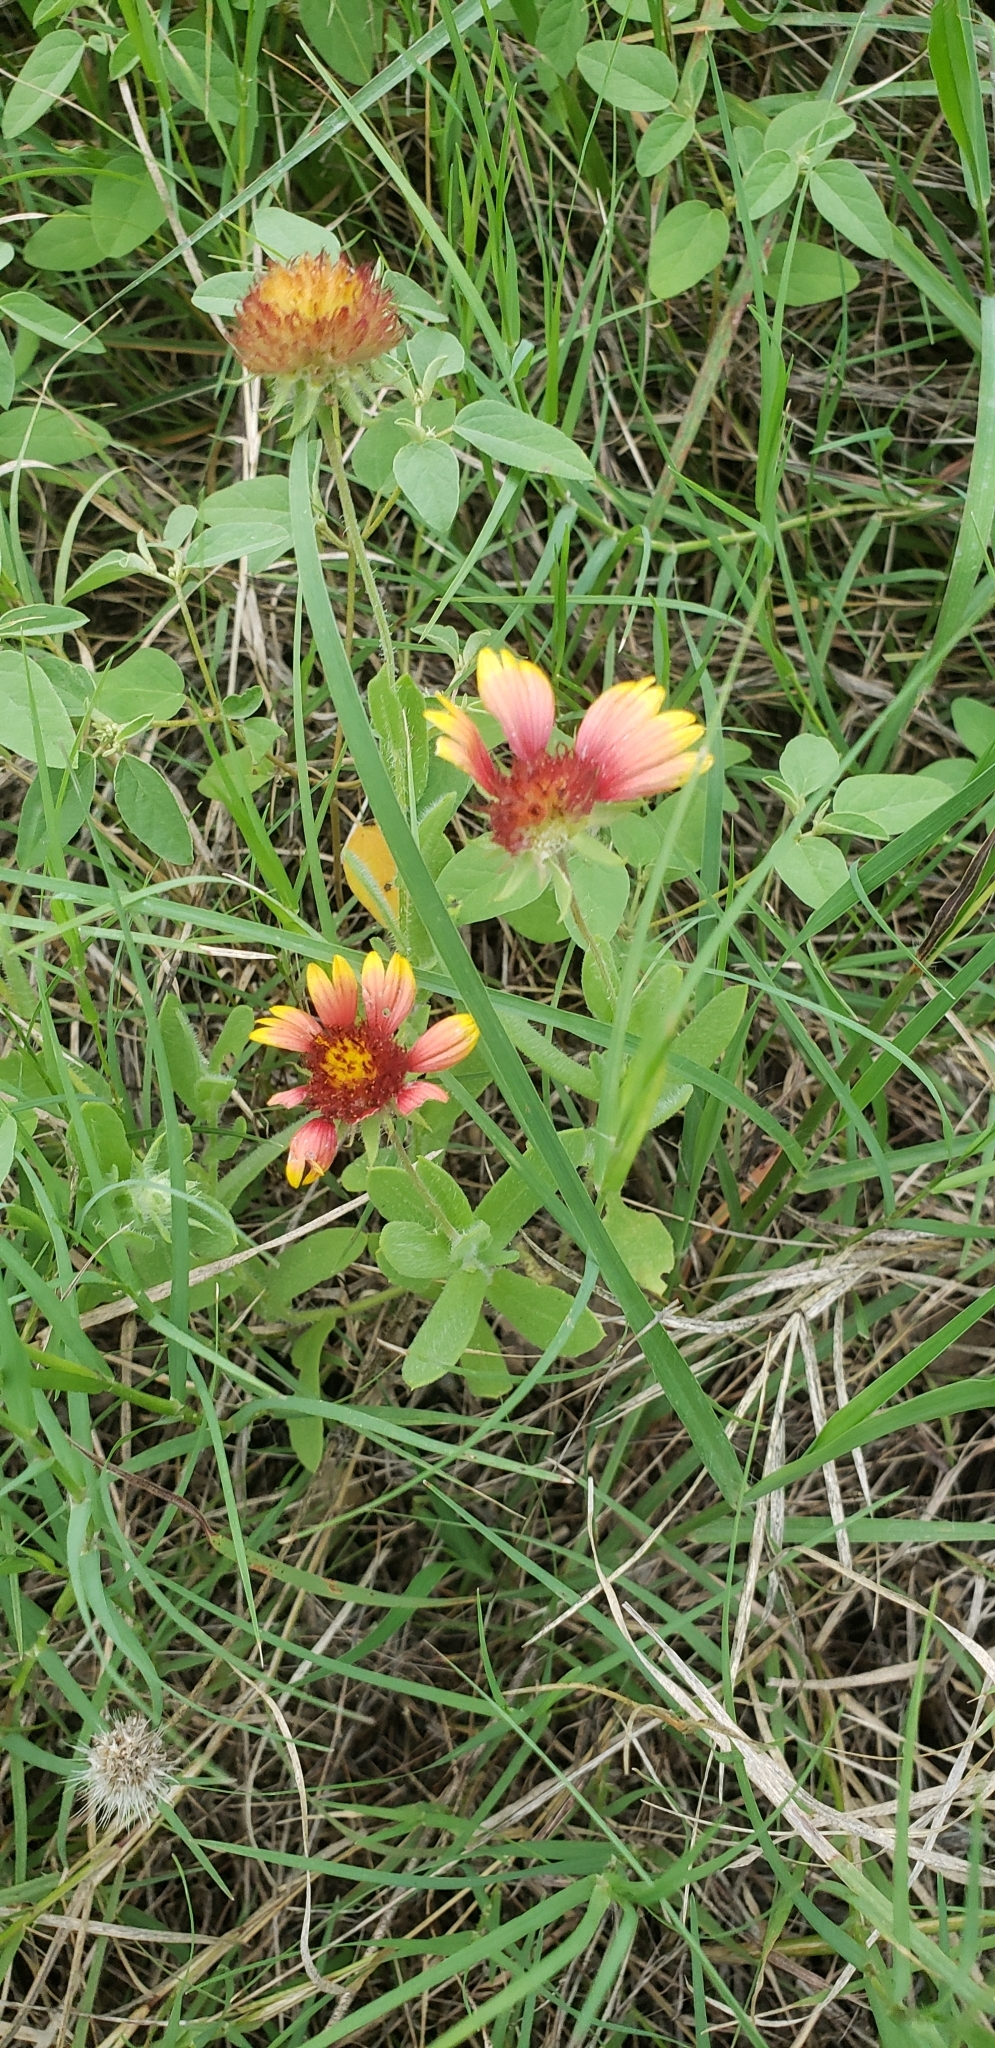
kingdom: Plantae
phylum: Tracheophyta
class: Magnoliopsida
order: Asterales
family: Asteraceae
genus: Gaillardia
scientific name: Gaillardia pulchella
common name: Firewheel
